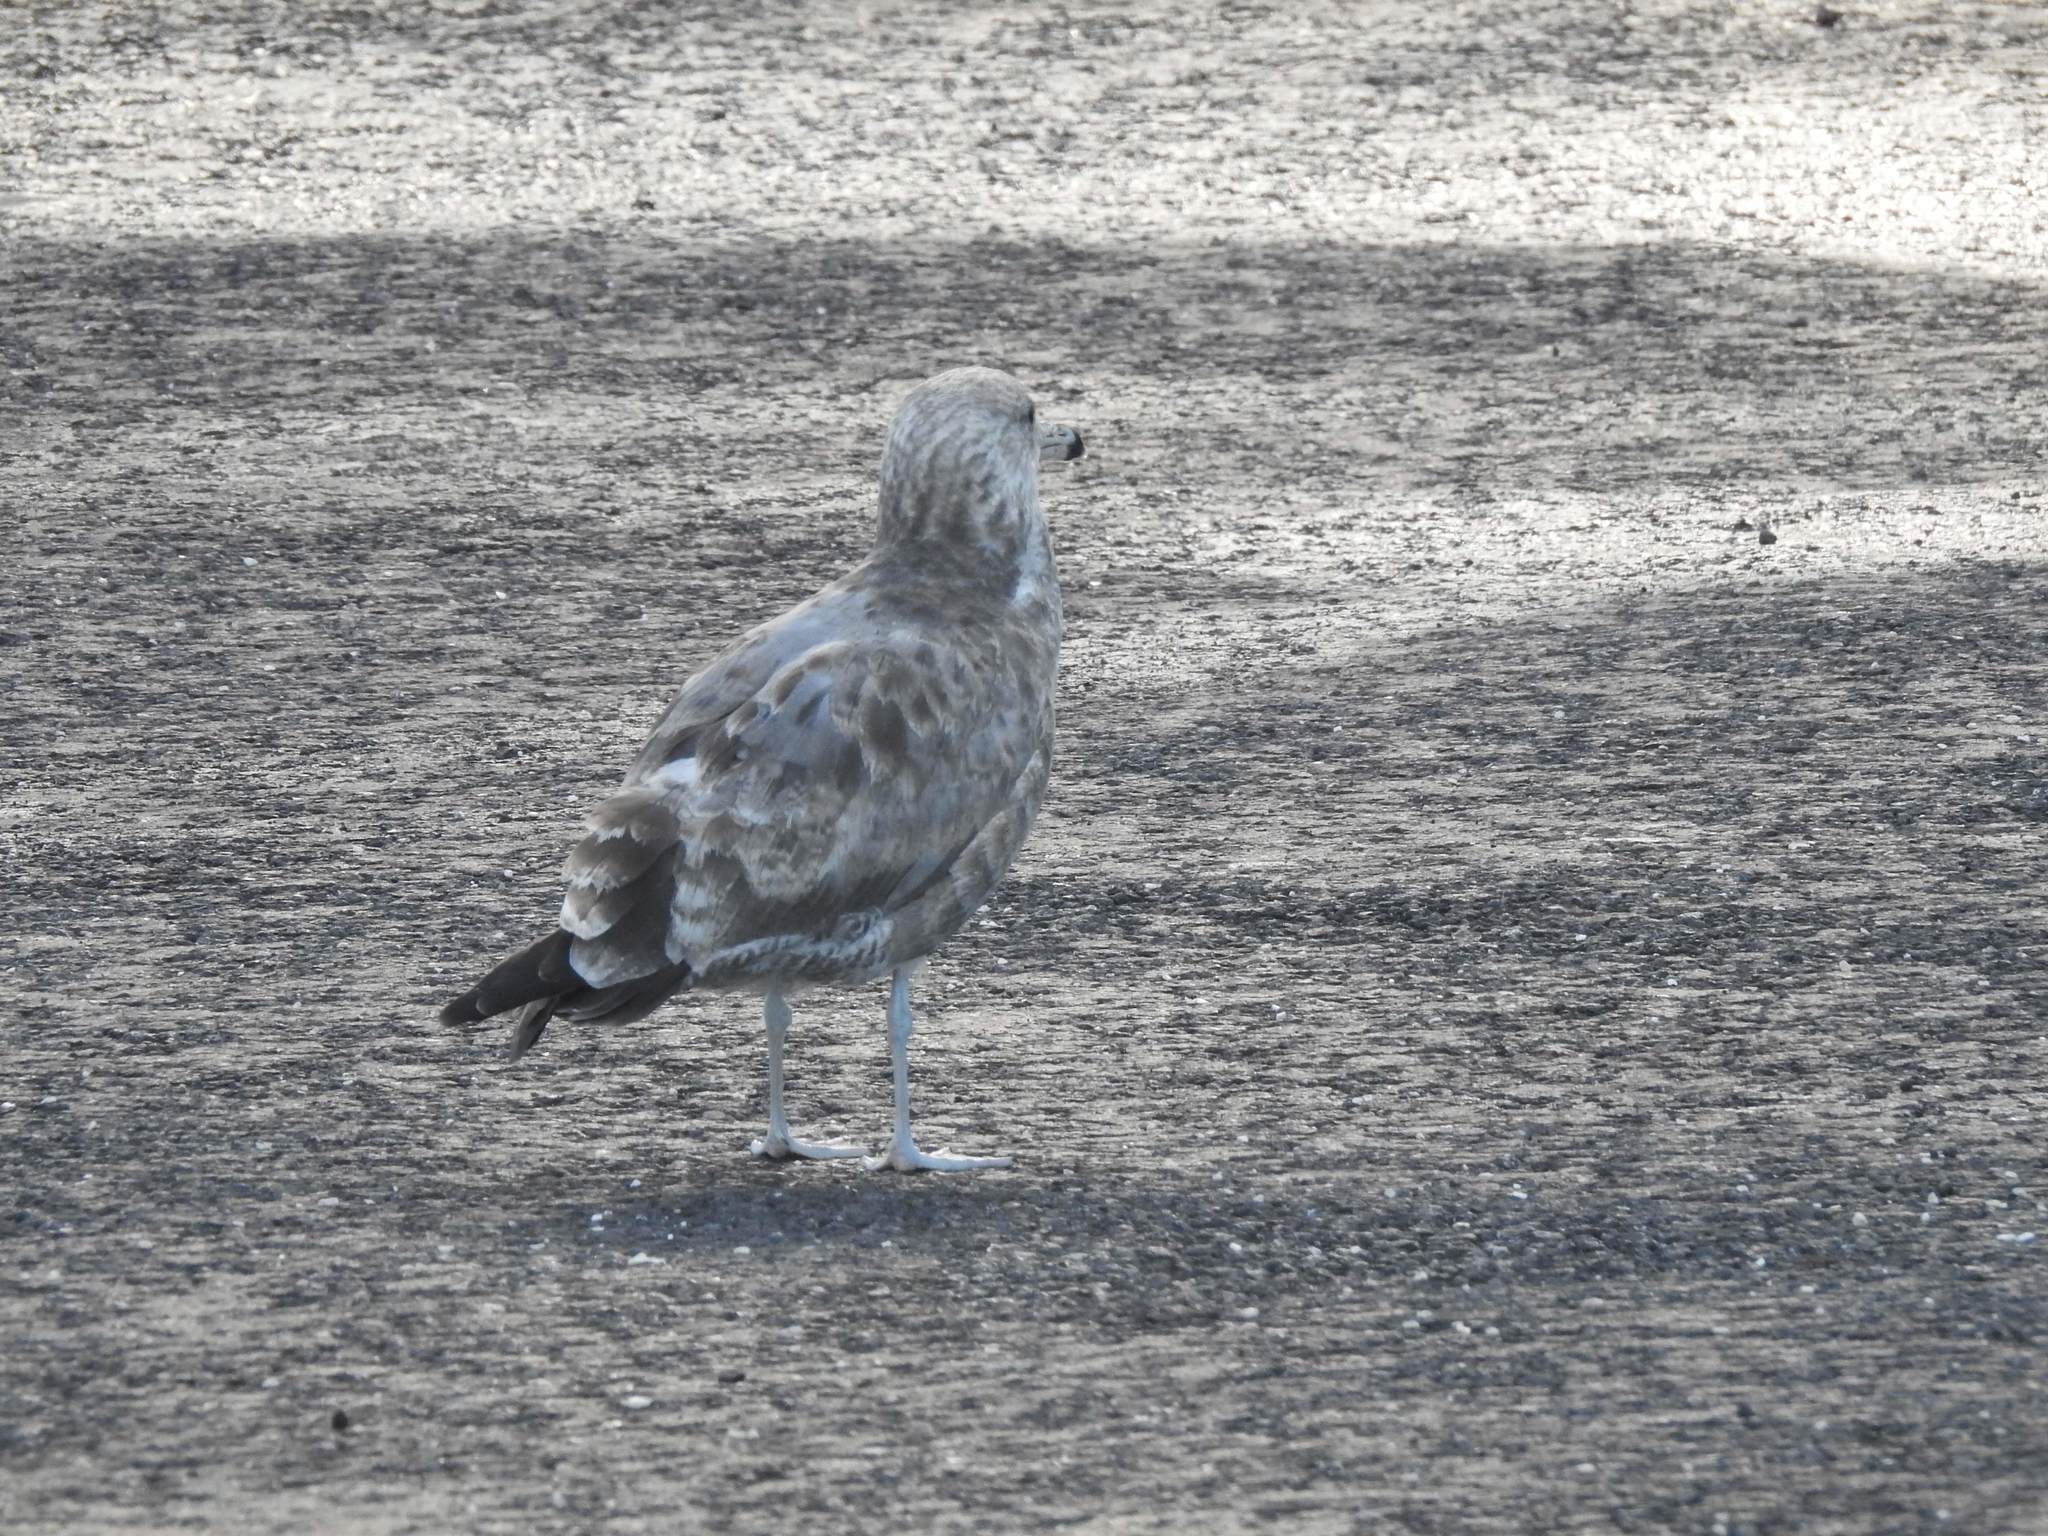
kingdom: Animalia
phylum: Chordata
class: Aves
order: Charadriiformes
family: Laridae
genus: Larus
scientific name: Larus californicus
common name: California gull
